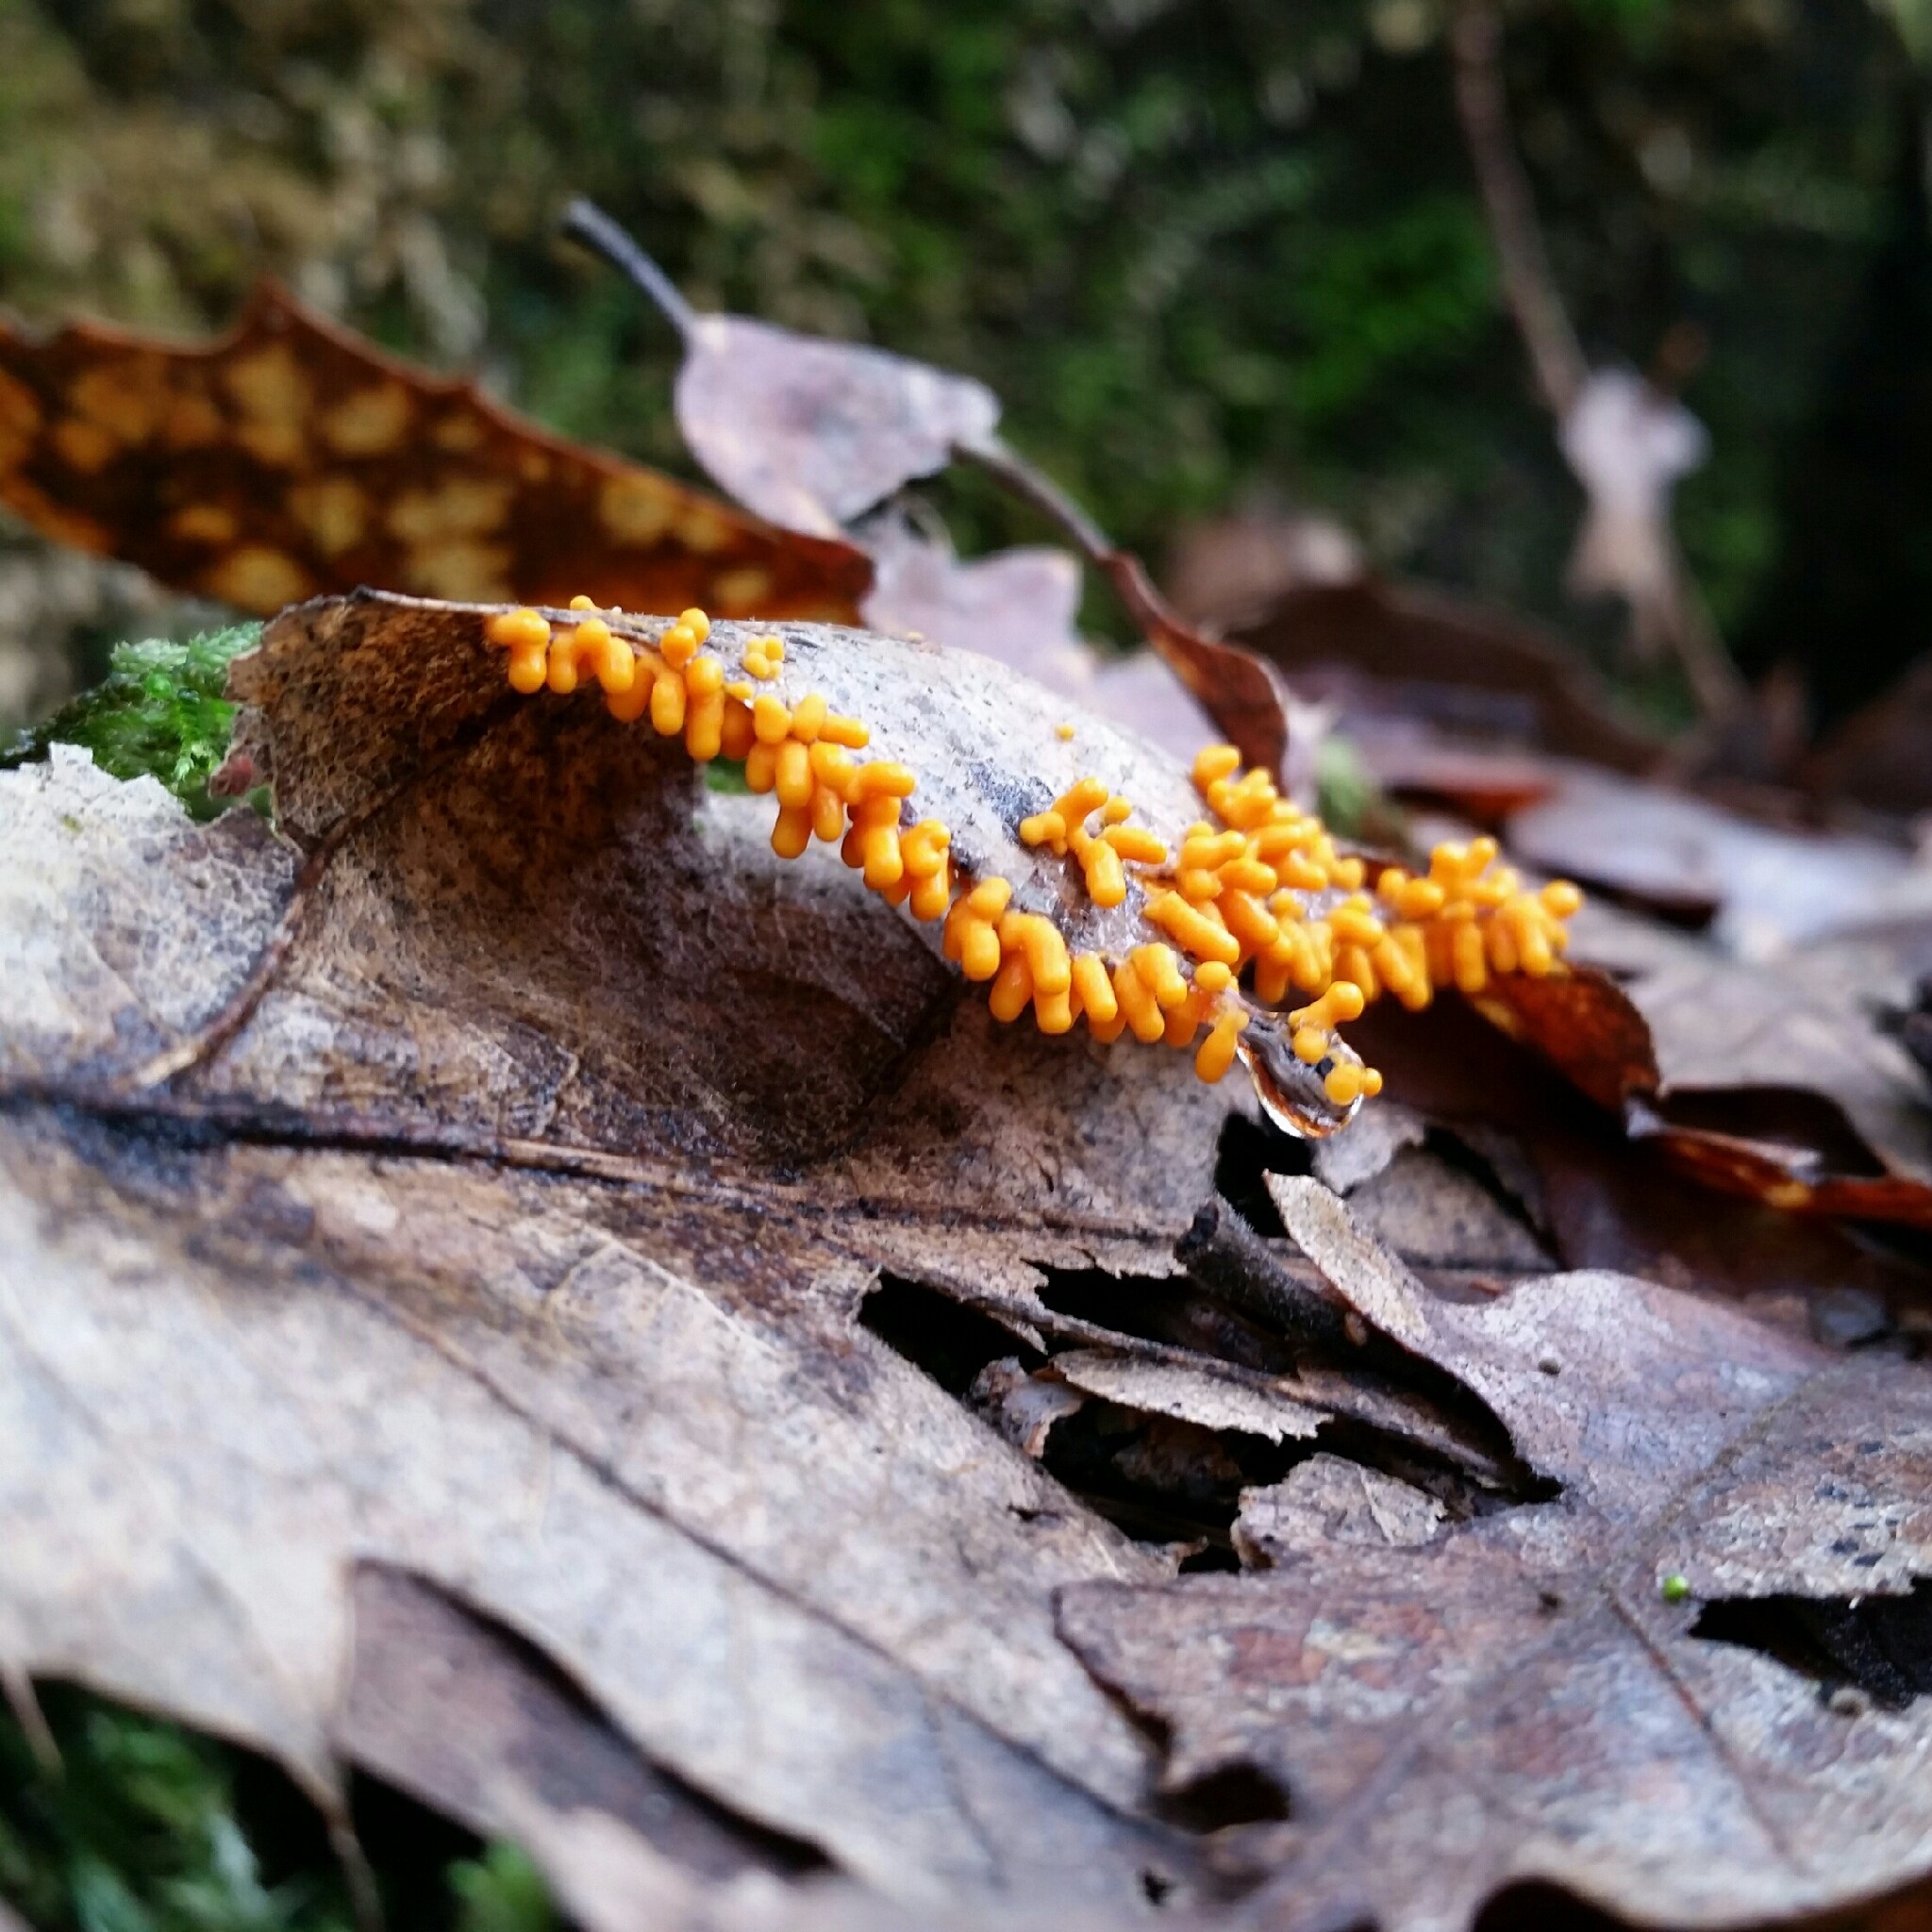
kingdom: Protozoa
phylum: Mycetozoa
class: Myxomycetes
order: Physarales
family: Physaraceae
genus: Leocarpus
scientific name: Leocarpus fragilis
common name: Insect-egg slime
